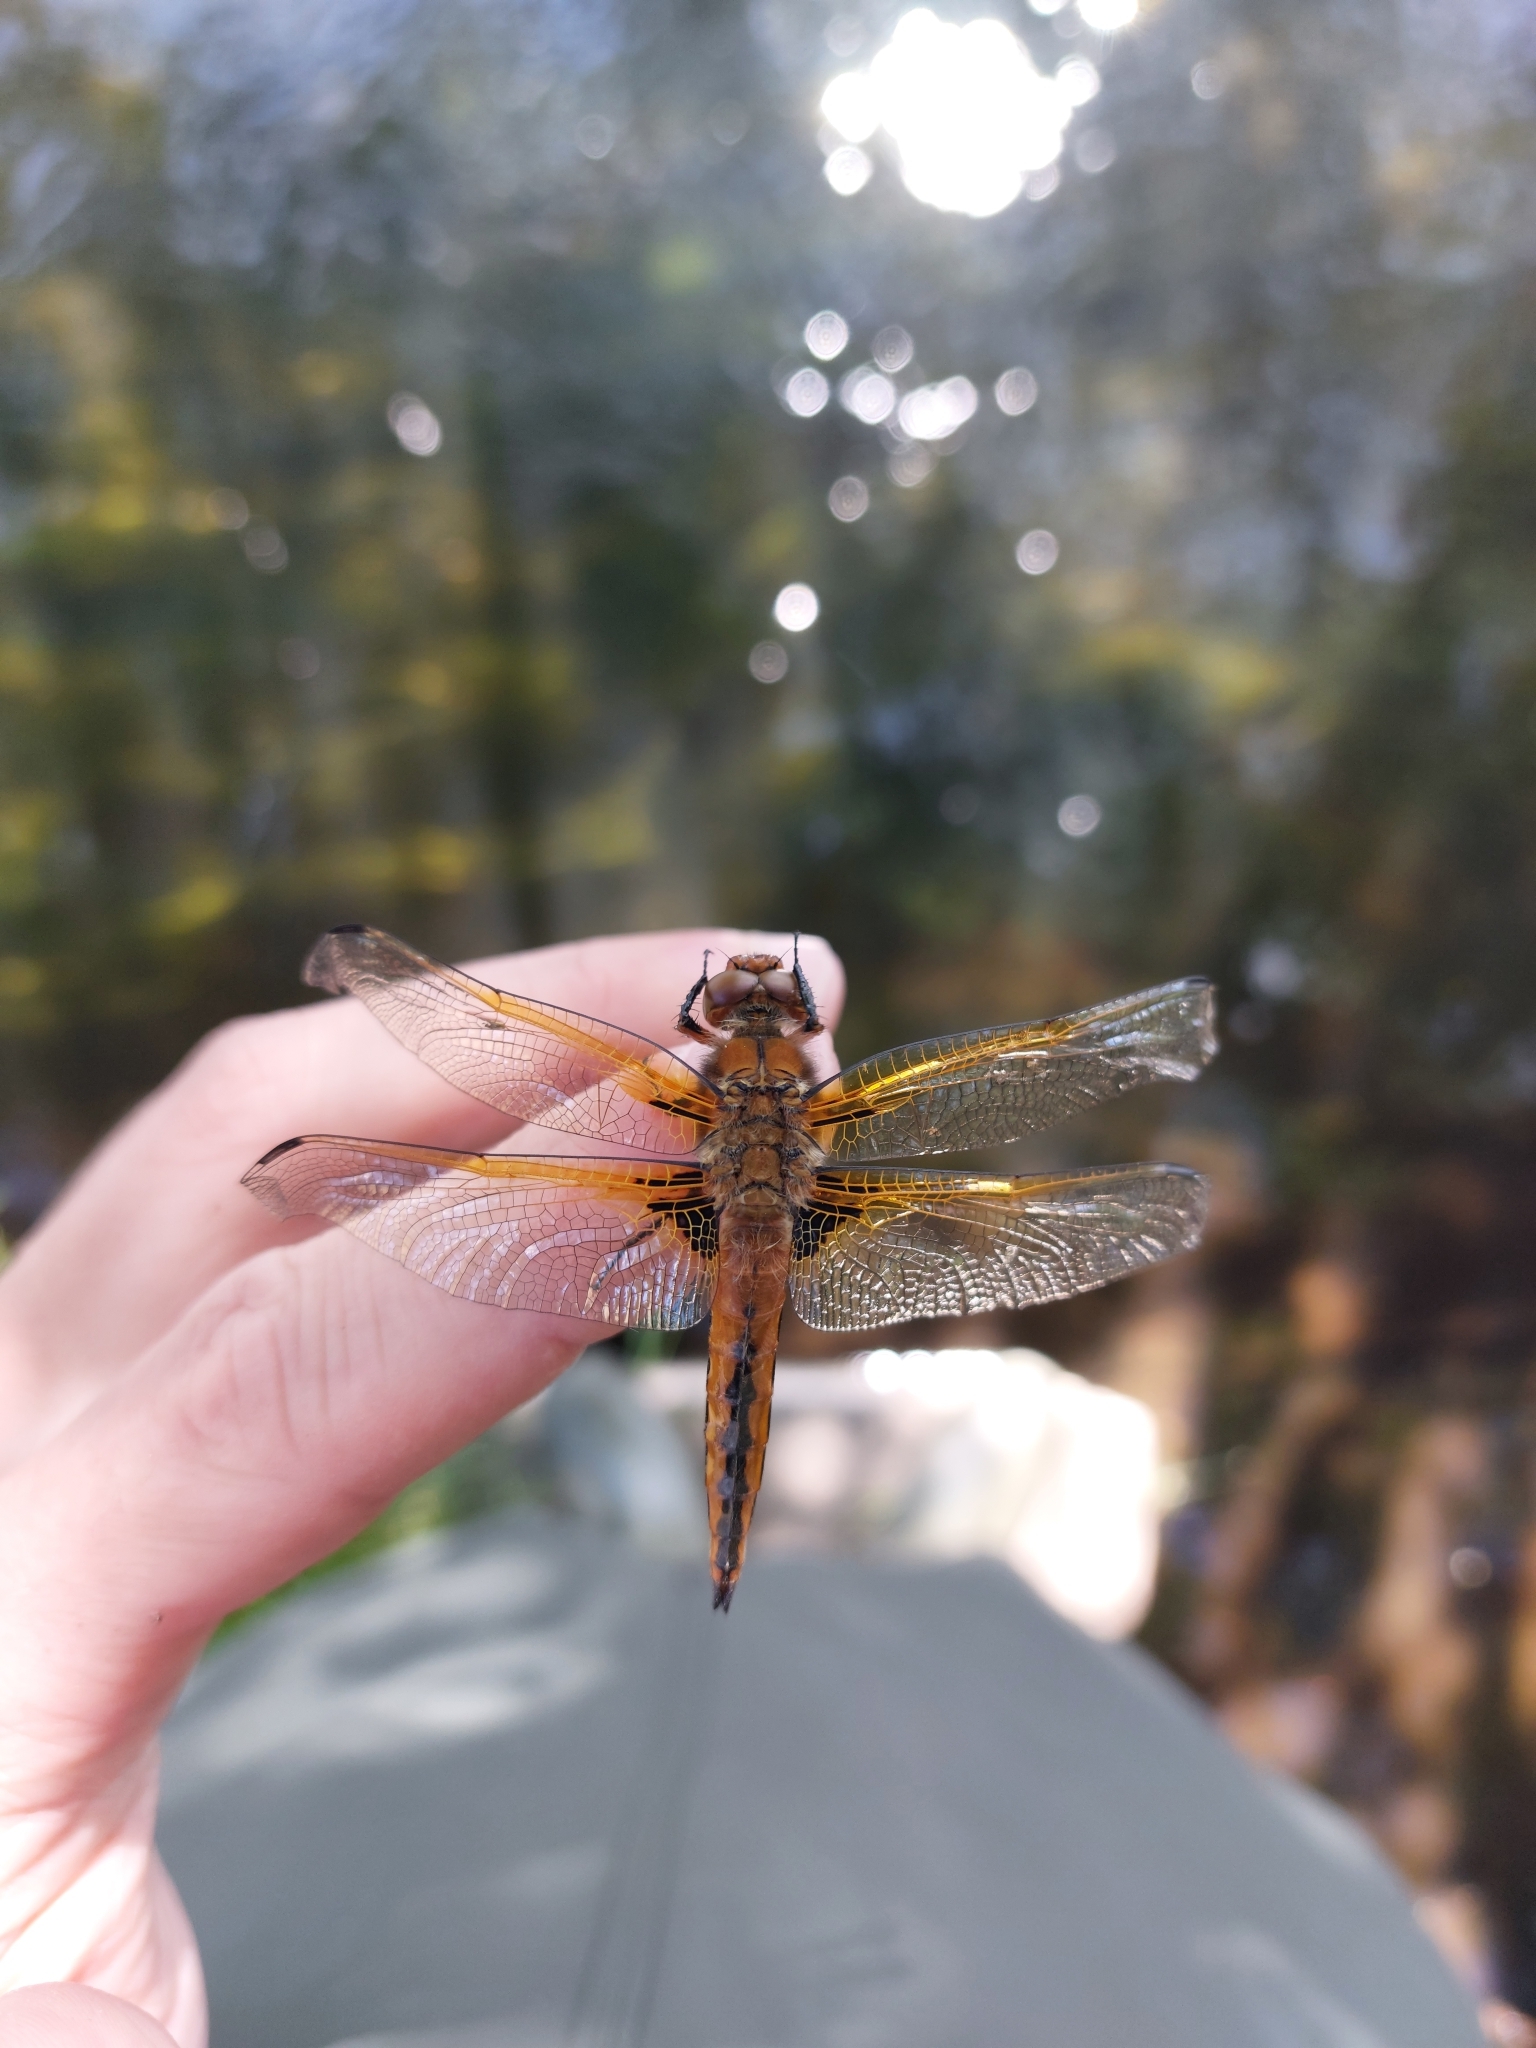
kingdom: Animalia
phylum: Arthropoda
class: Insecta
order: Odonata
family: Libellulidae
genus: Libellula
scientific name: Libellula fulva
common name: Blue chaser
